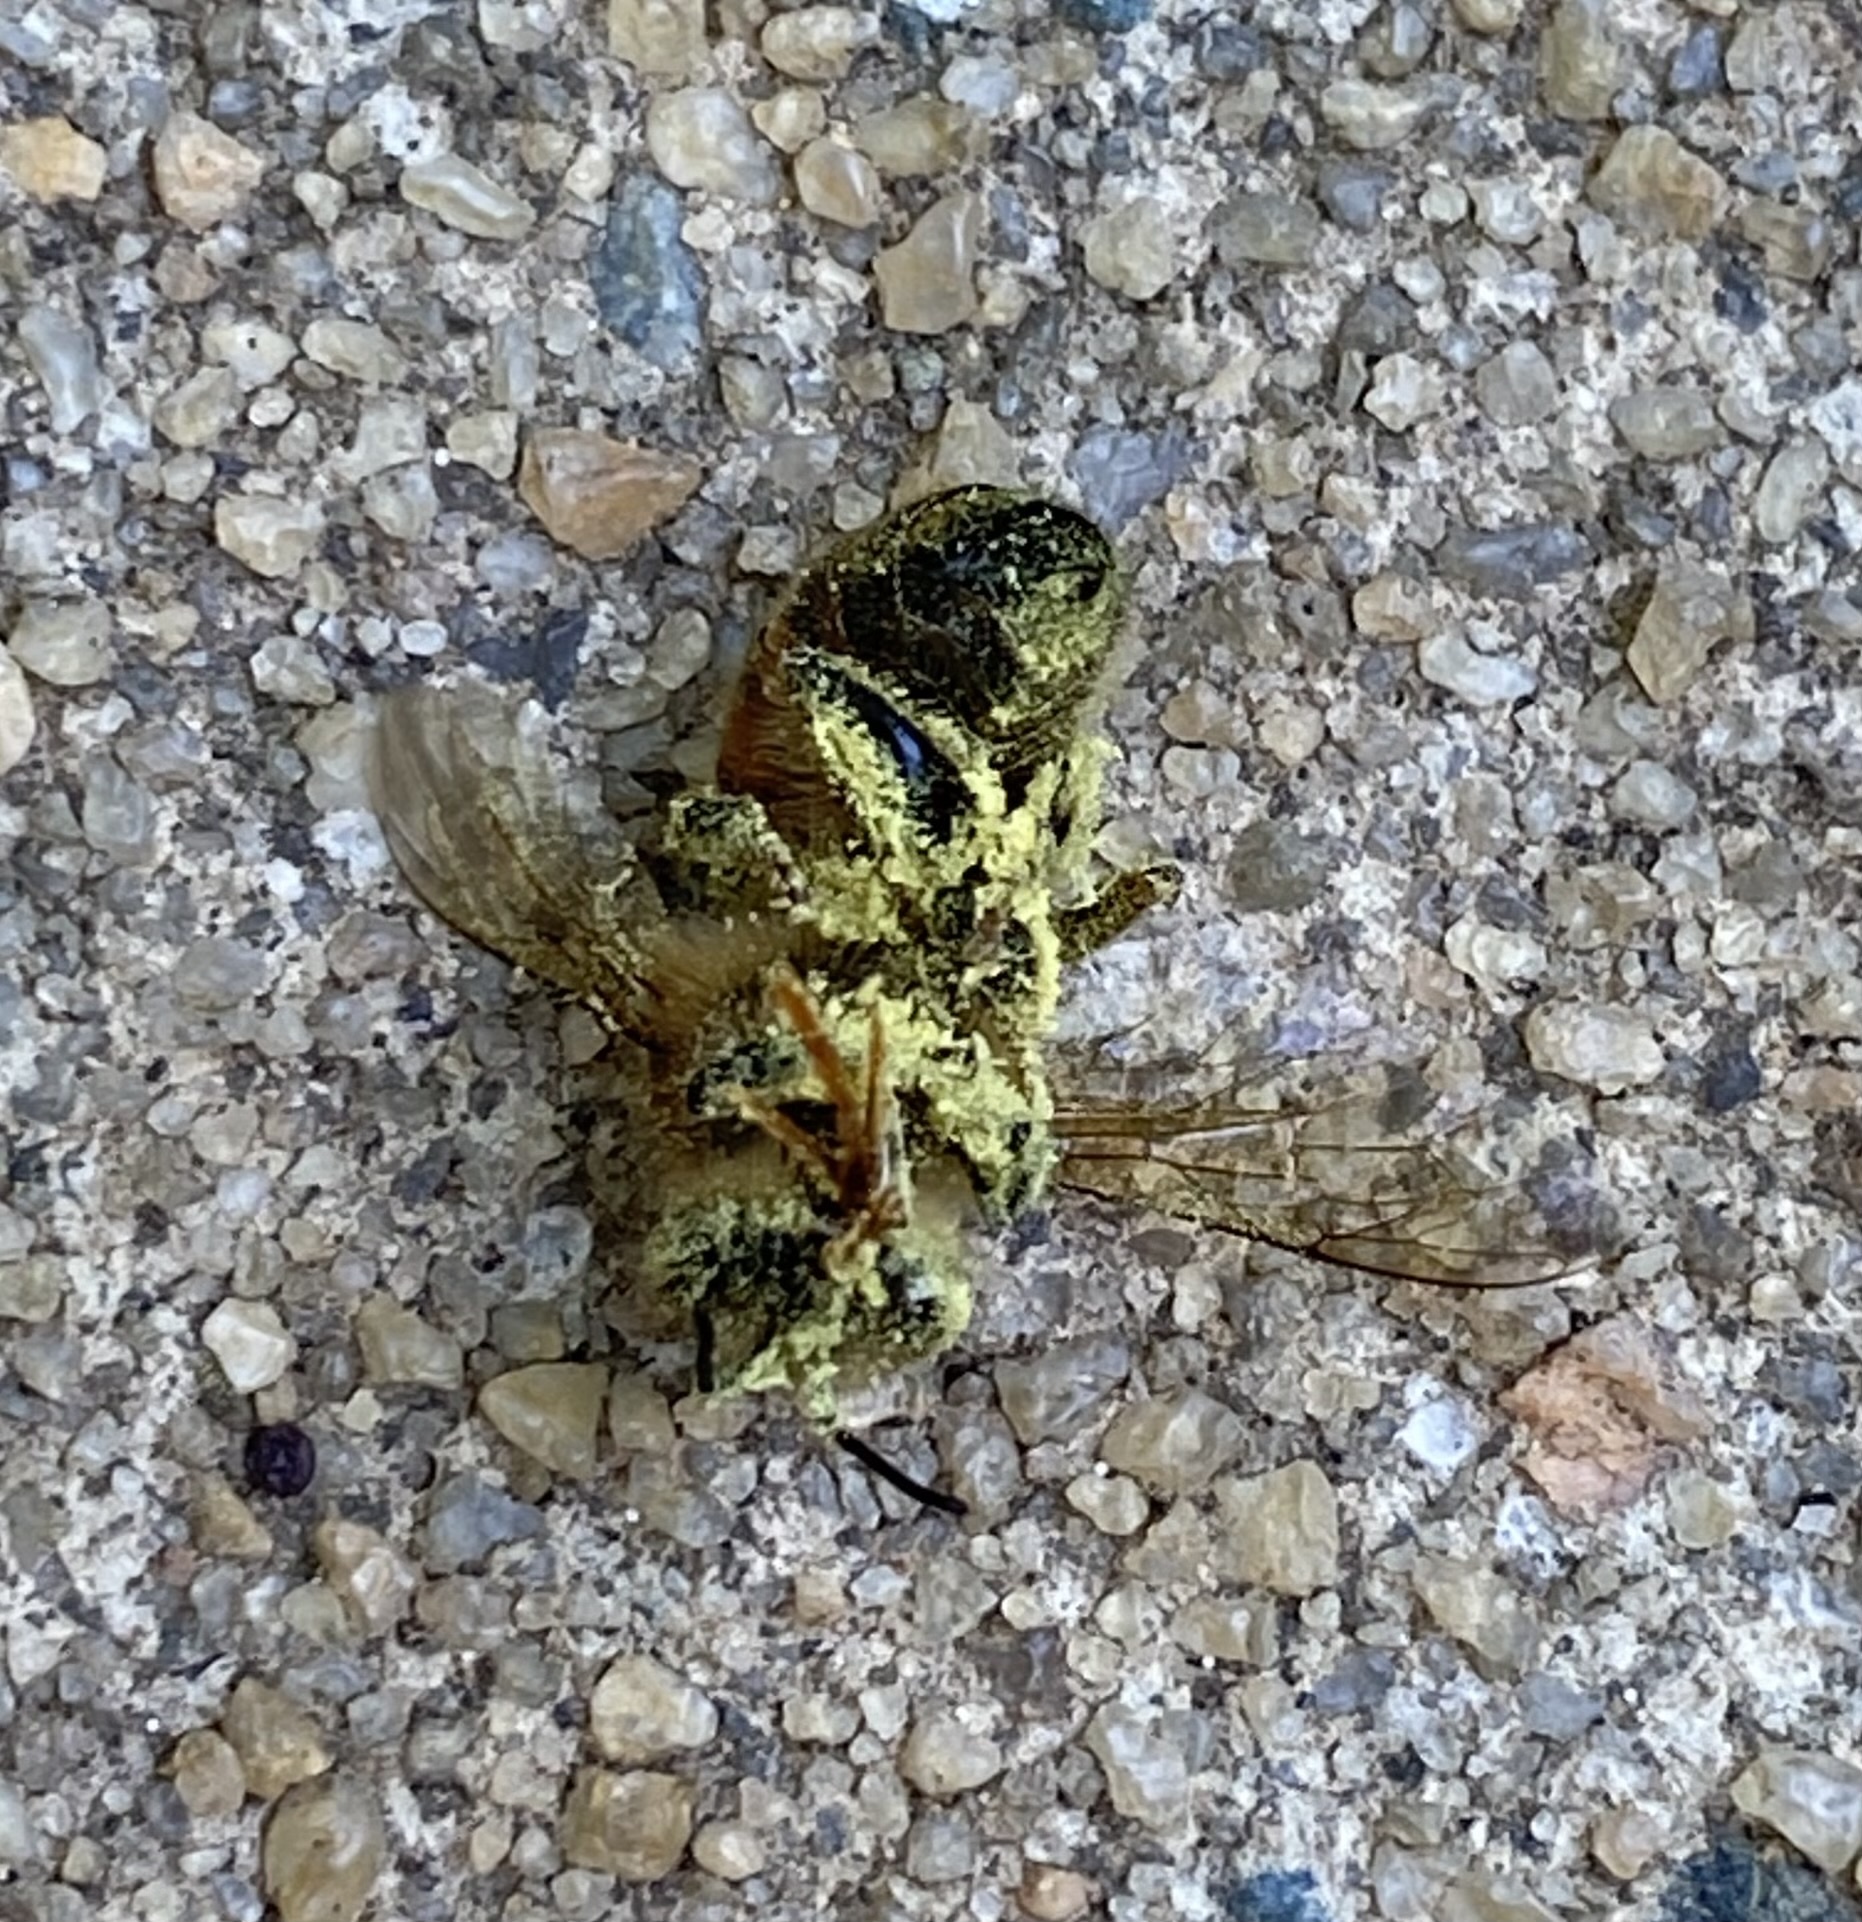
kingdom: Animalia
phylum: Arthropoda
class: Insecta
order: Hymenoptera
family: Apidae
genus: Apis
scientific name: Apis mellifera
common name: Honey bee
